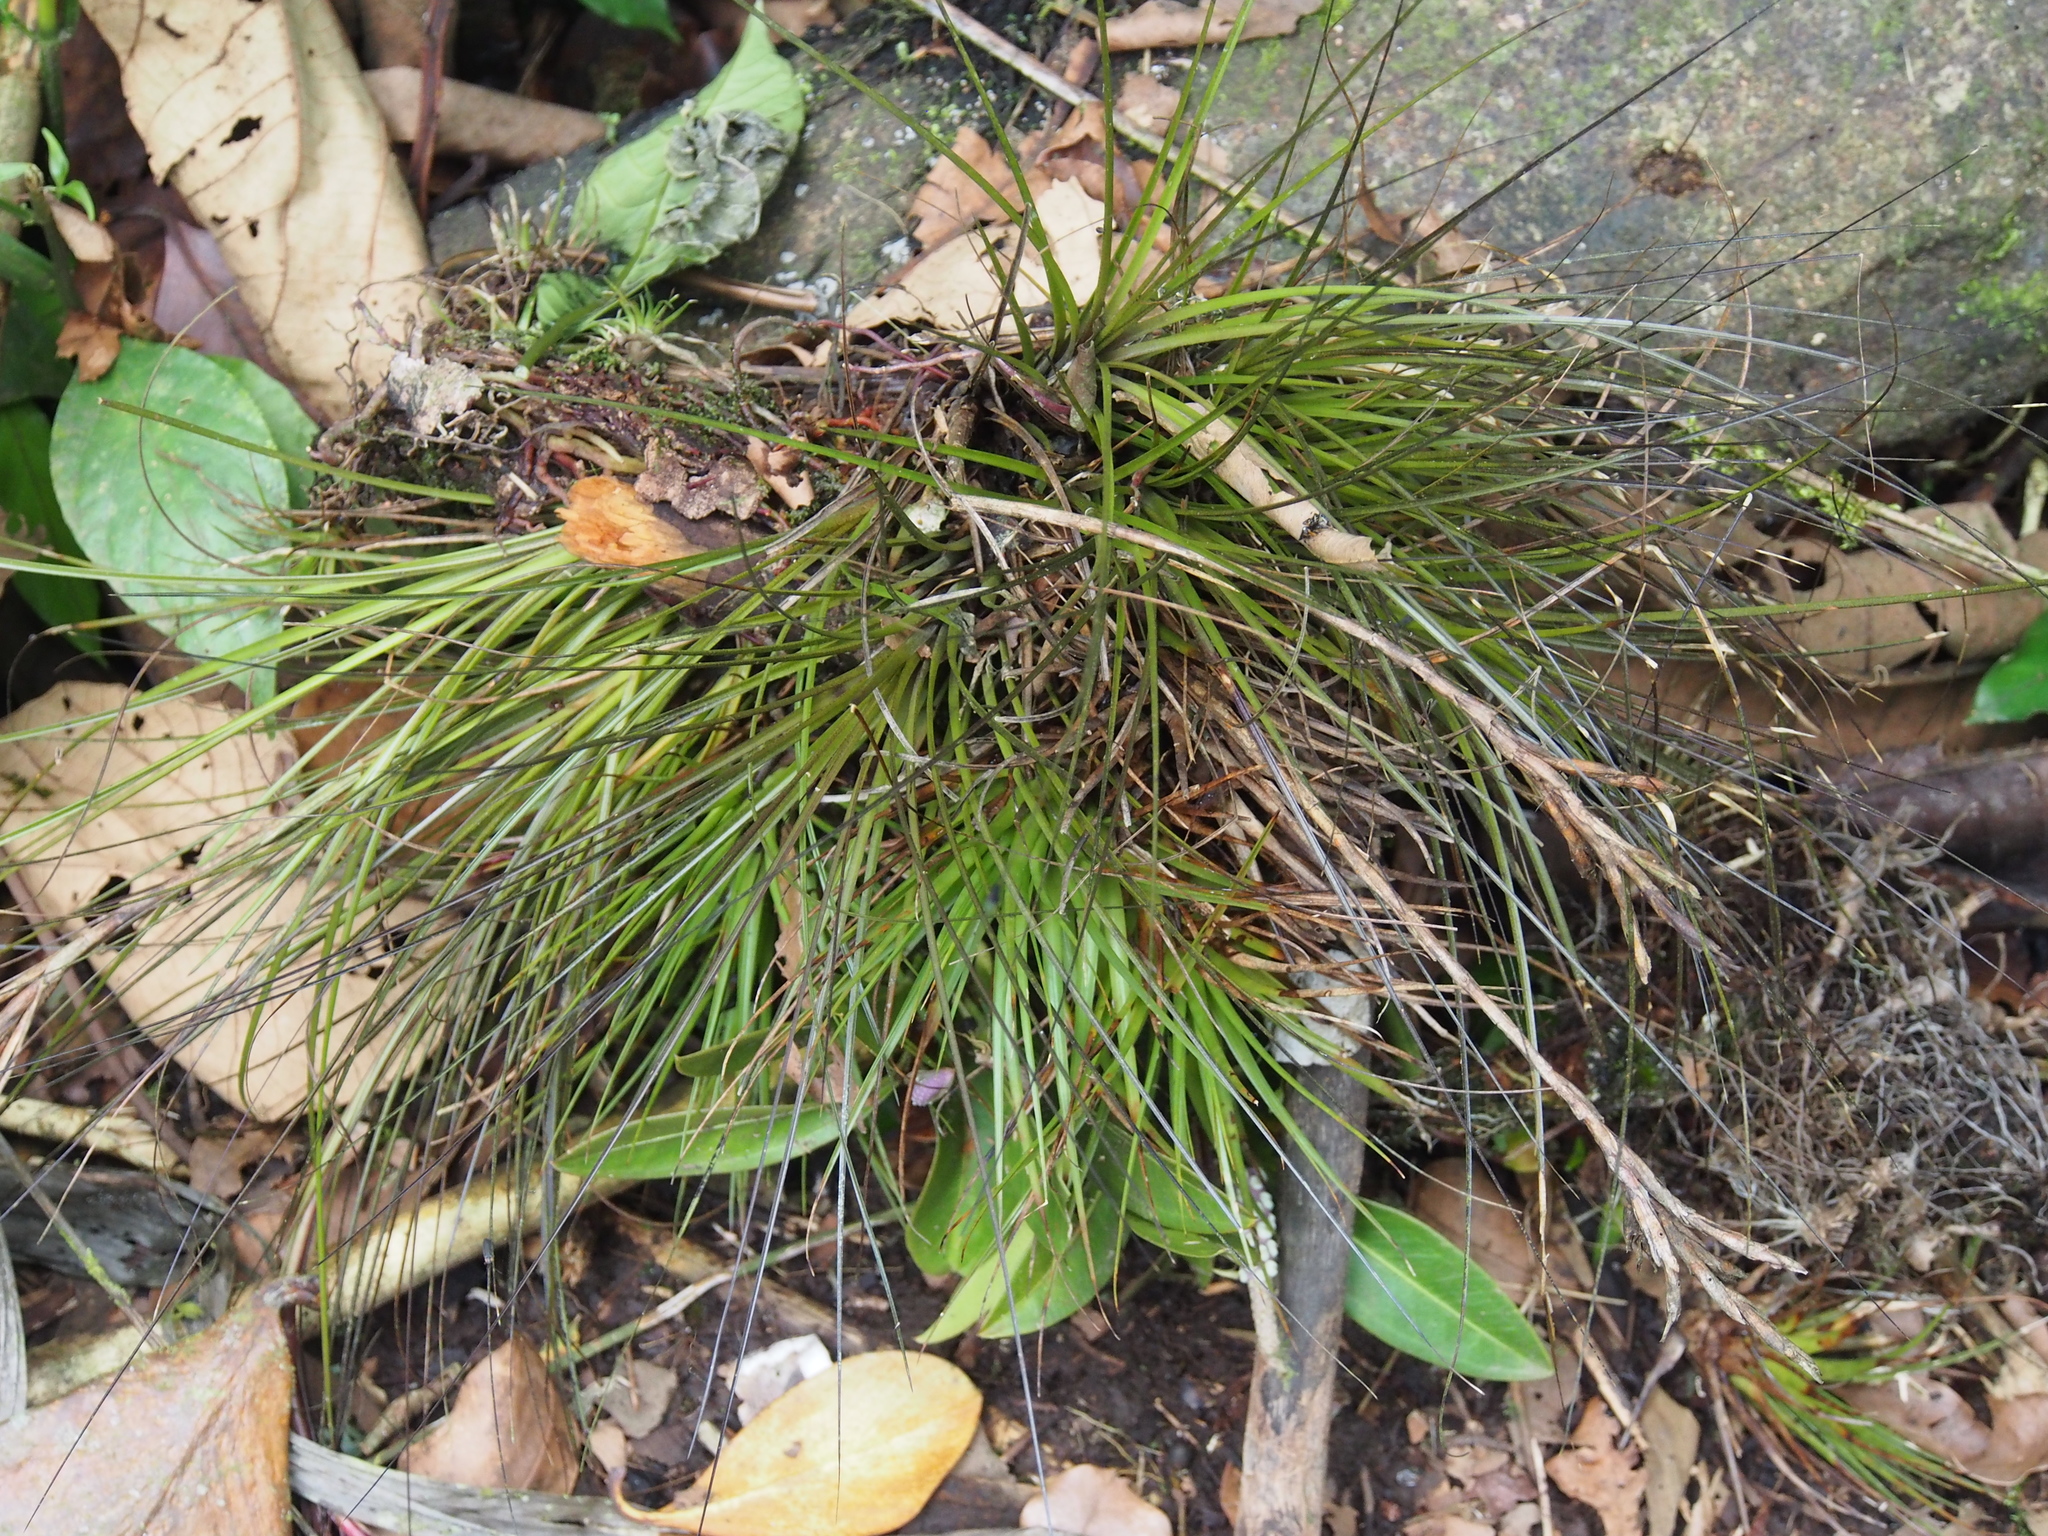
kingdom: Plantae
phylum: Tracheophyta
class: Liliopsida
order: Poales
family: Bromeliaceae
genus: Tillandsia
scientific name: Tillandsia punctulata
